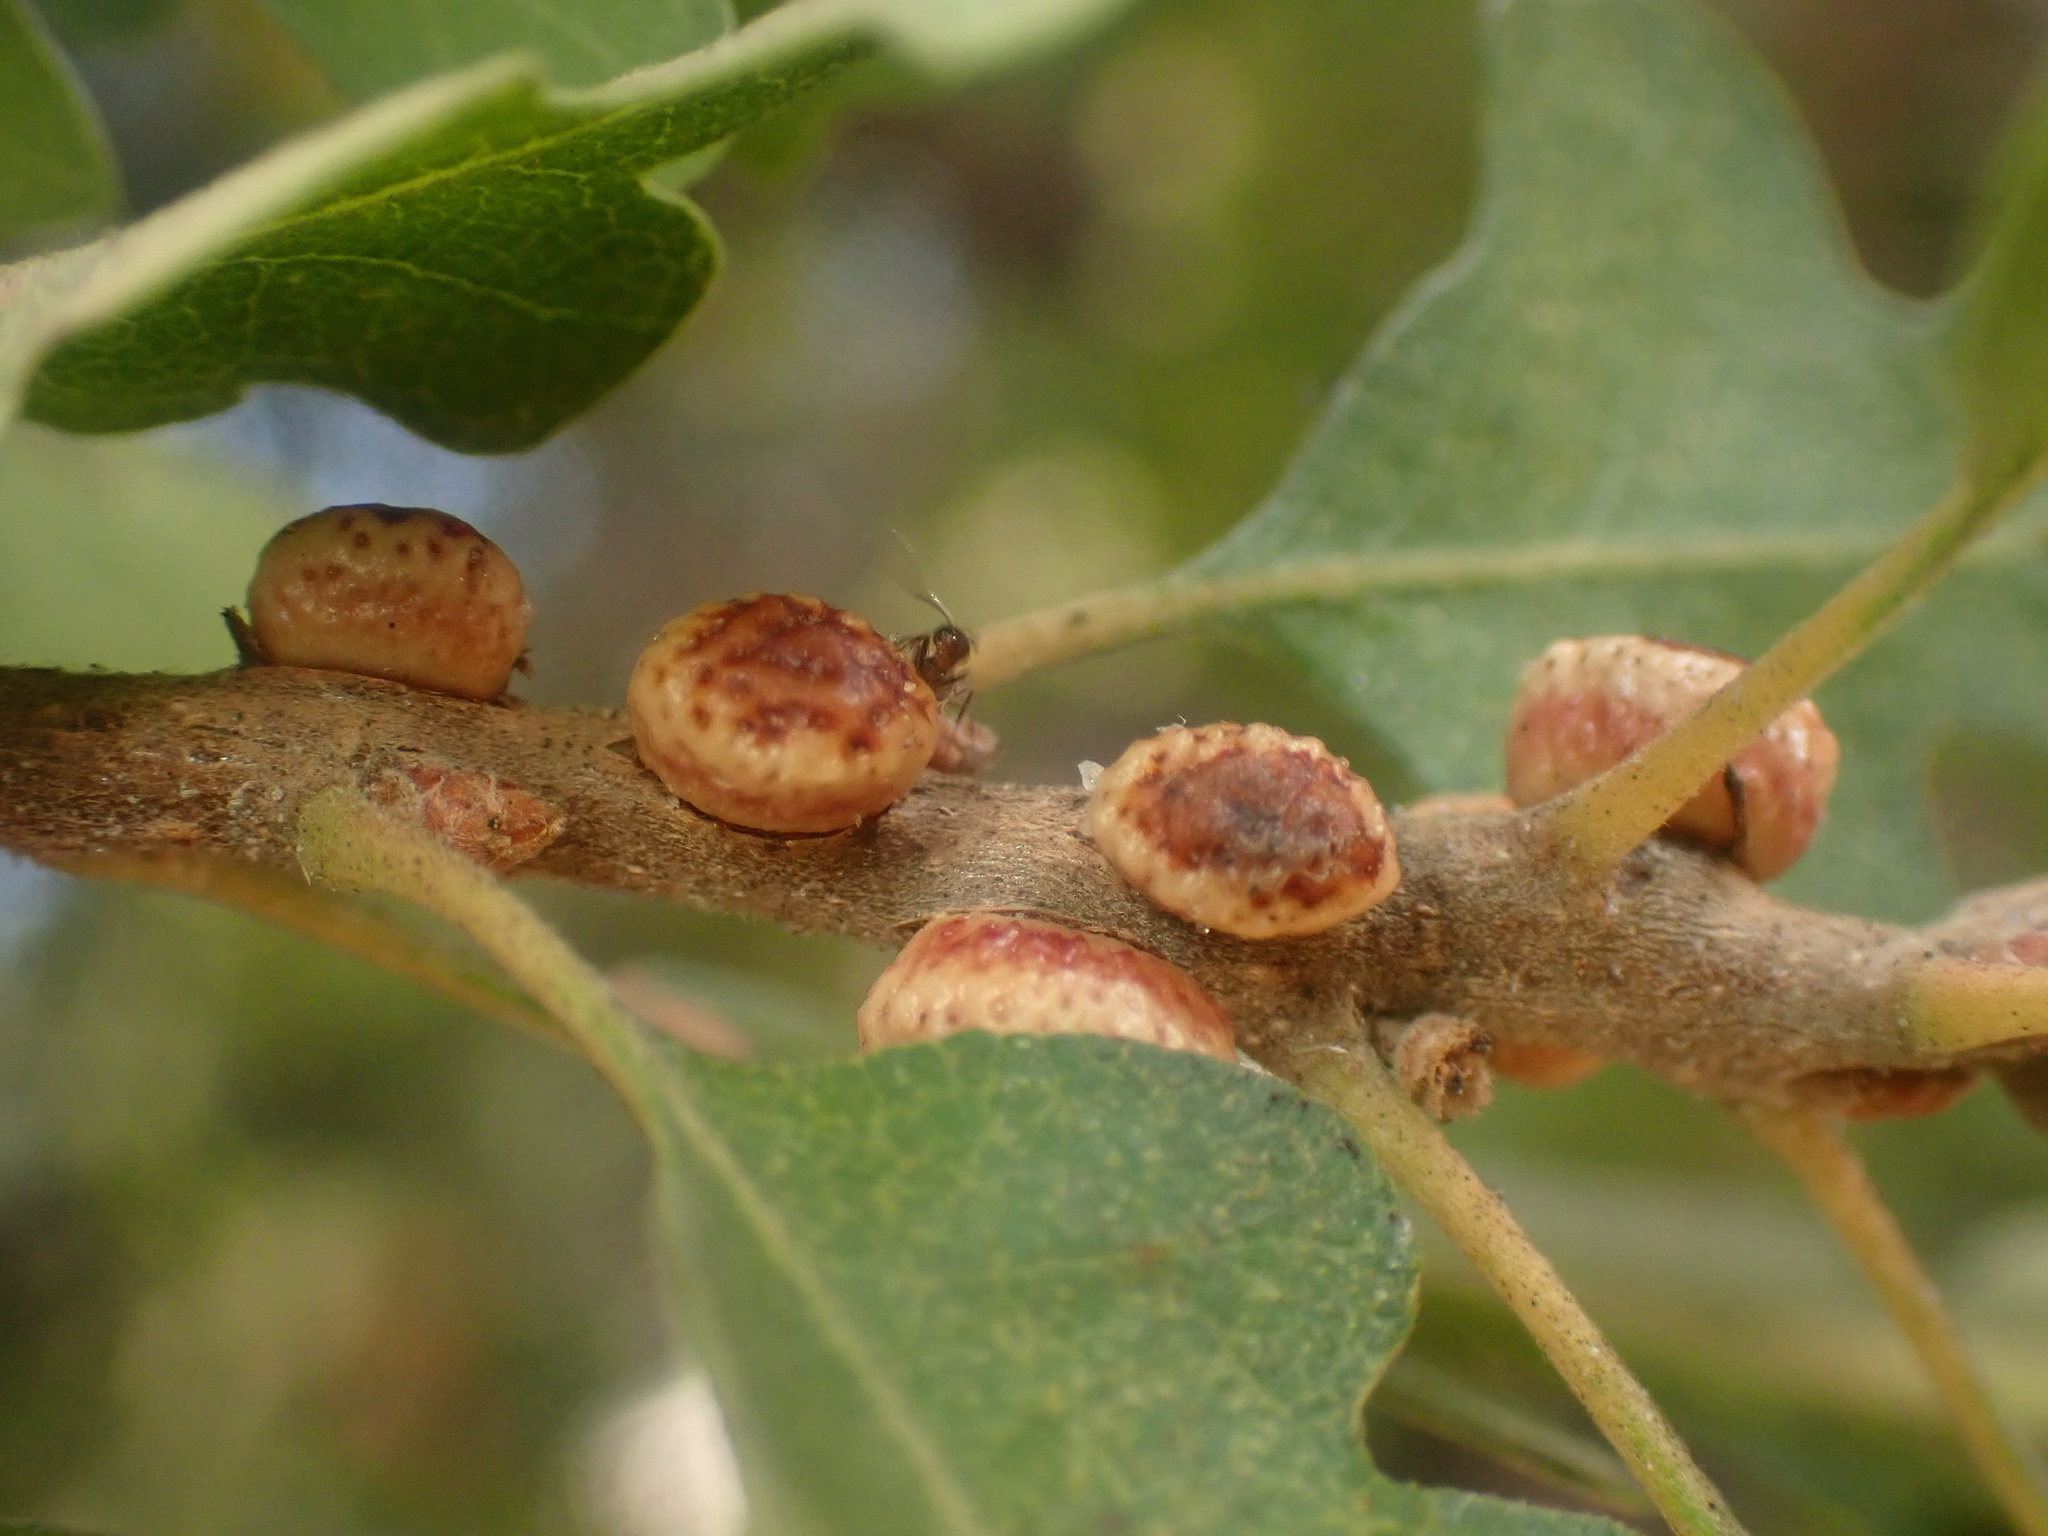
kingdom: Animalia
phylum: Arthropoda
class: Insecta
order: Hymenoptera
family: Cynipidae
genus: Disholcaspis
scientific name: Disholcaspis
